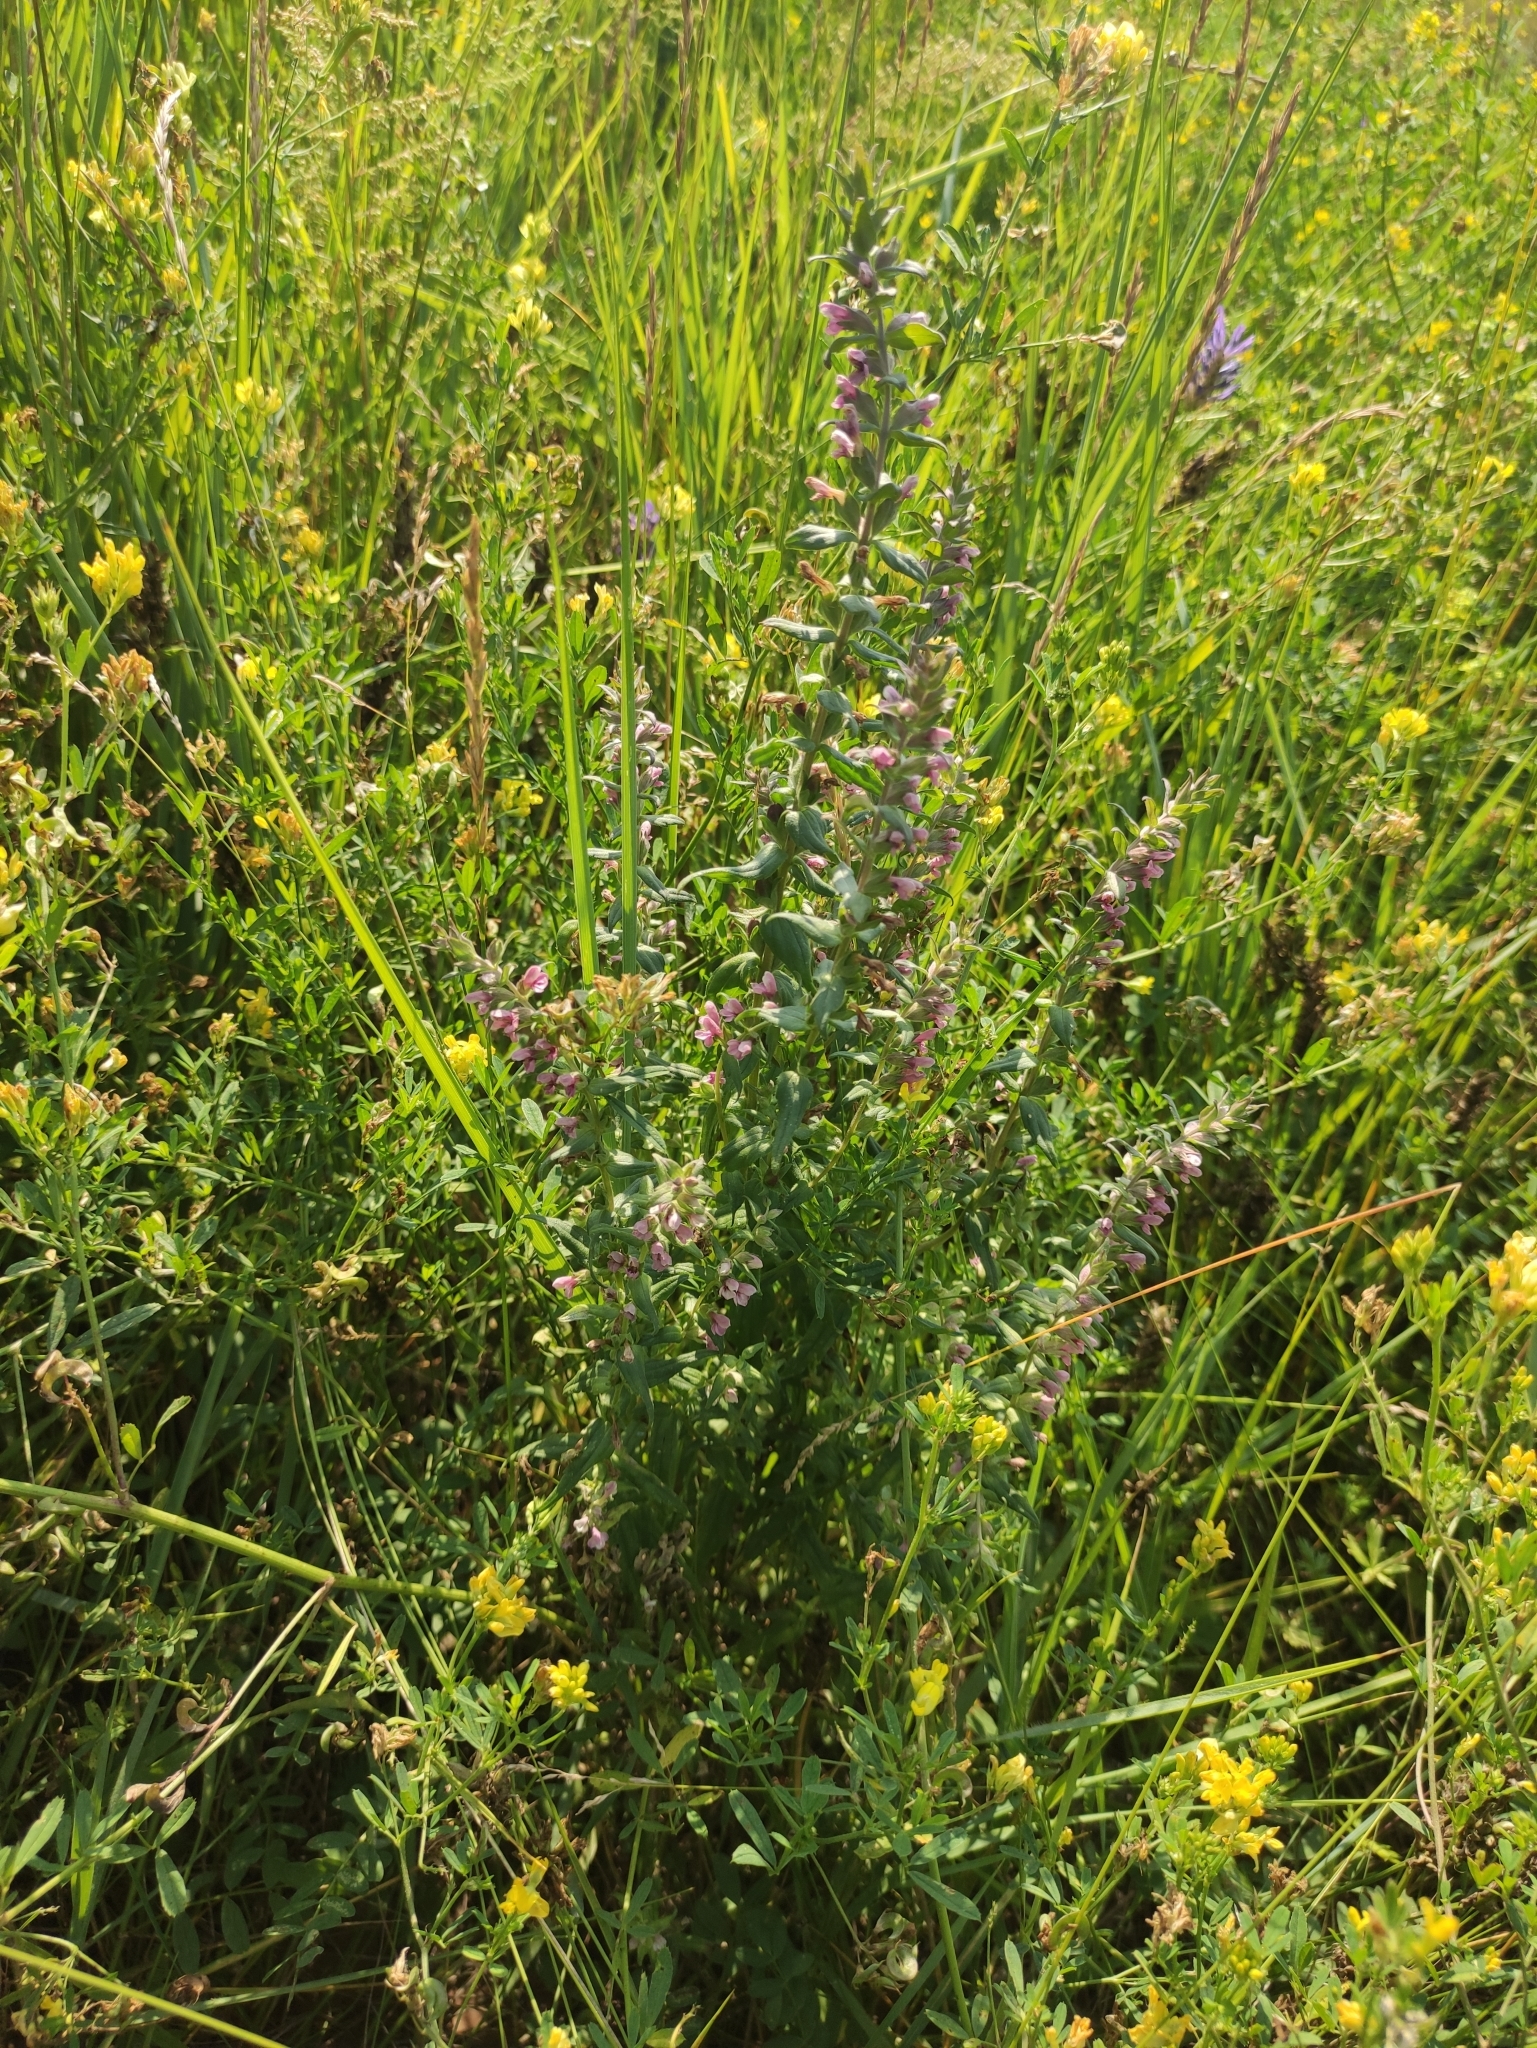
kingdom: Plantae
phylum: Tracheophyta
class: Magnoliopsida
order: Lamiales
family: Orobanchaceae
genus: Odontites
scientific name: Odontites vulgaris
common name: Broomrape
